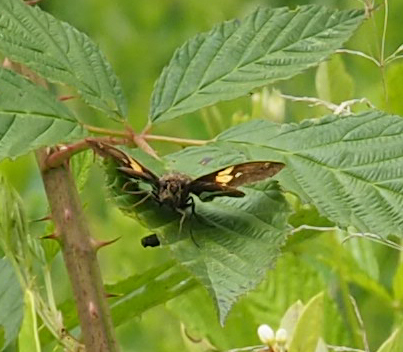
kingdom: Animalia
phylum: Arthropoda
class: Insecta
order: Lepidoptera
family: Hesperiidae
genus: Epargyreus
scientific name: Epargyreus clarus
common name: Silver-spotted skipper
